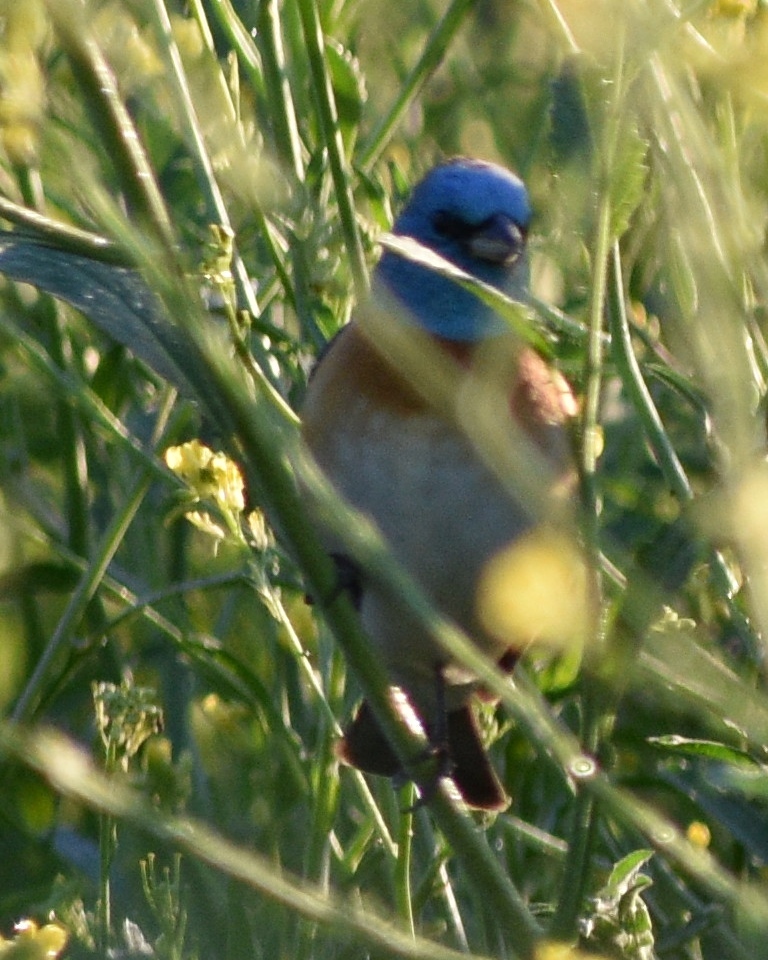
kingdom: Animalia
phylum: Chordata
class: Aves
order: Passeriformes
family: Cardinalidae
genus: Passerina
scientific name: Passerina amoena
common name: Lazuli bunting
